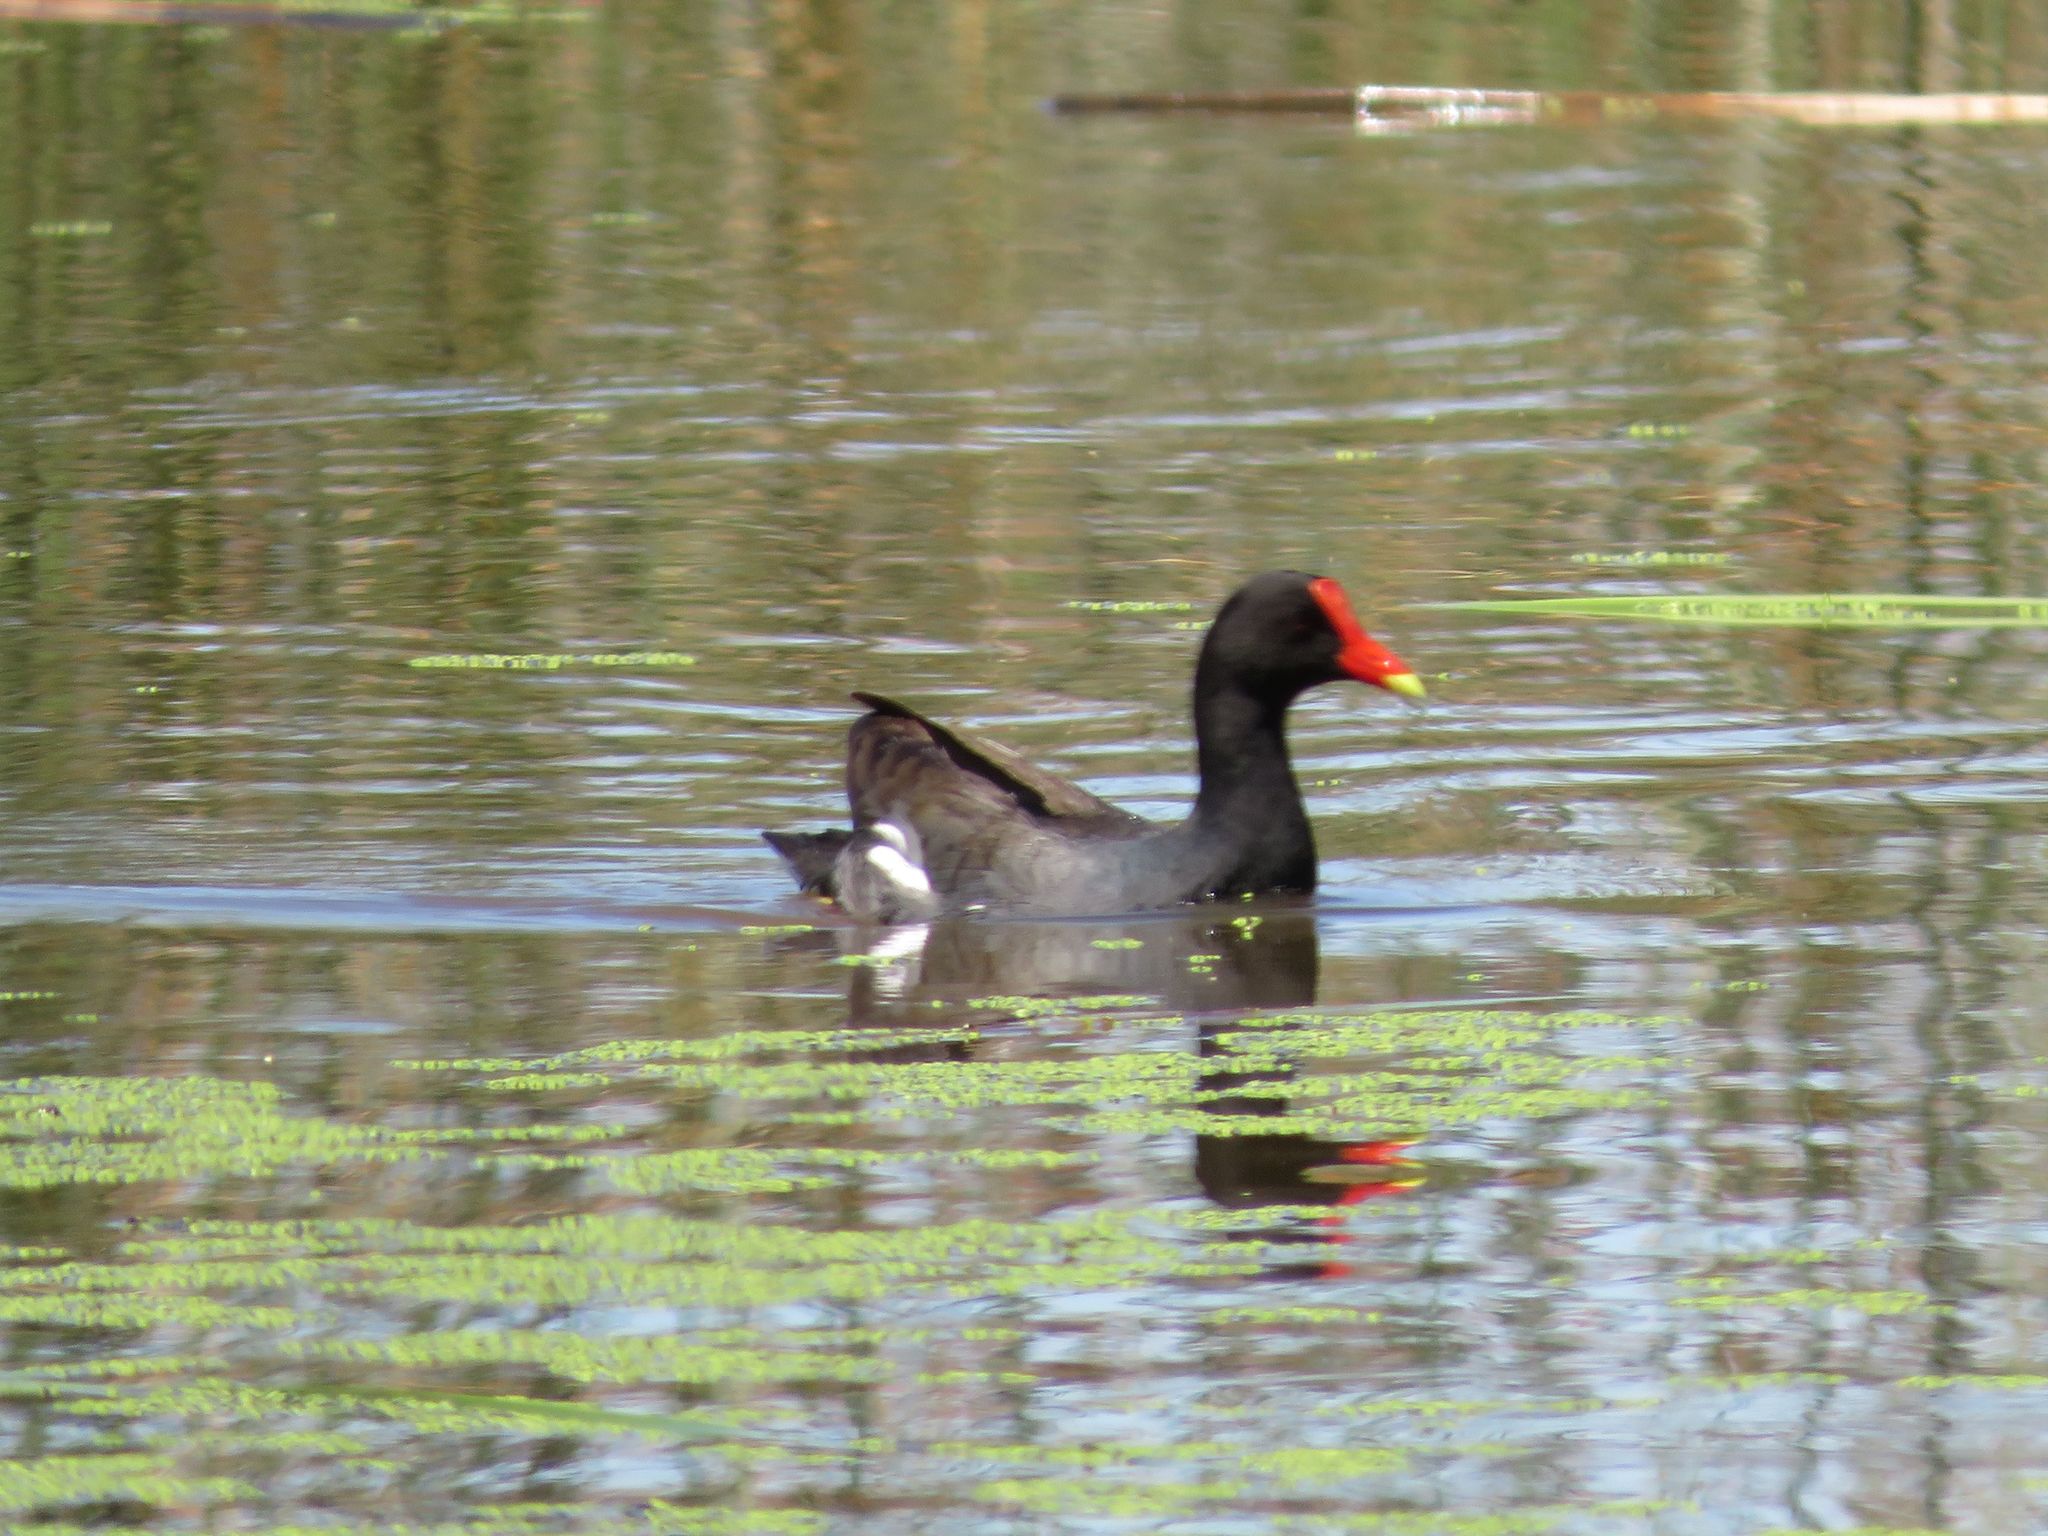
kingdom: Animalia
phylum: Chordata
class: Aves
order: Gruiformes
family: Rallidae
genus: Gallinula
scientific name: Gallinula chloropus
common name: Common moorhen
